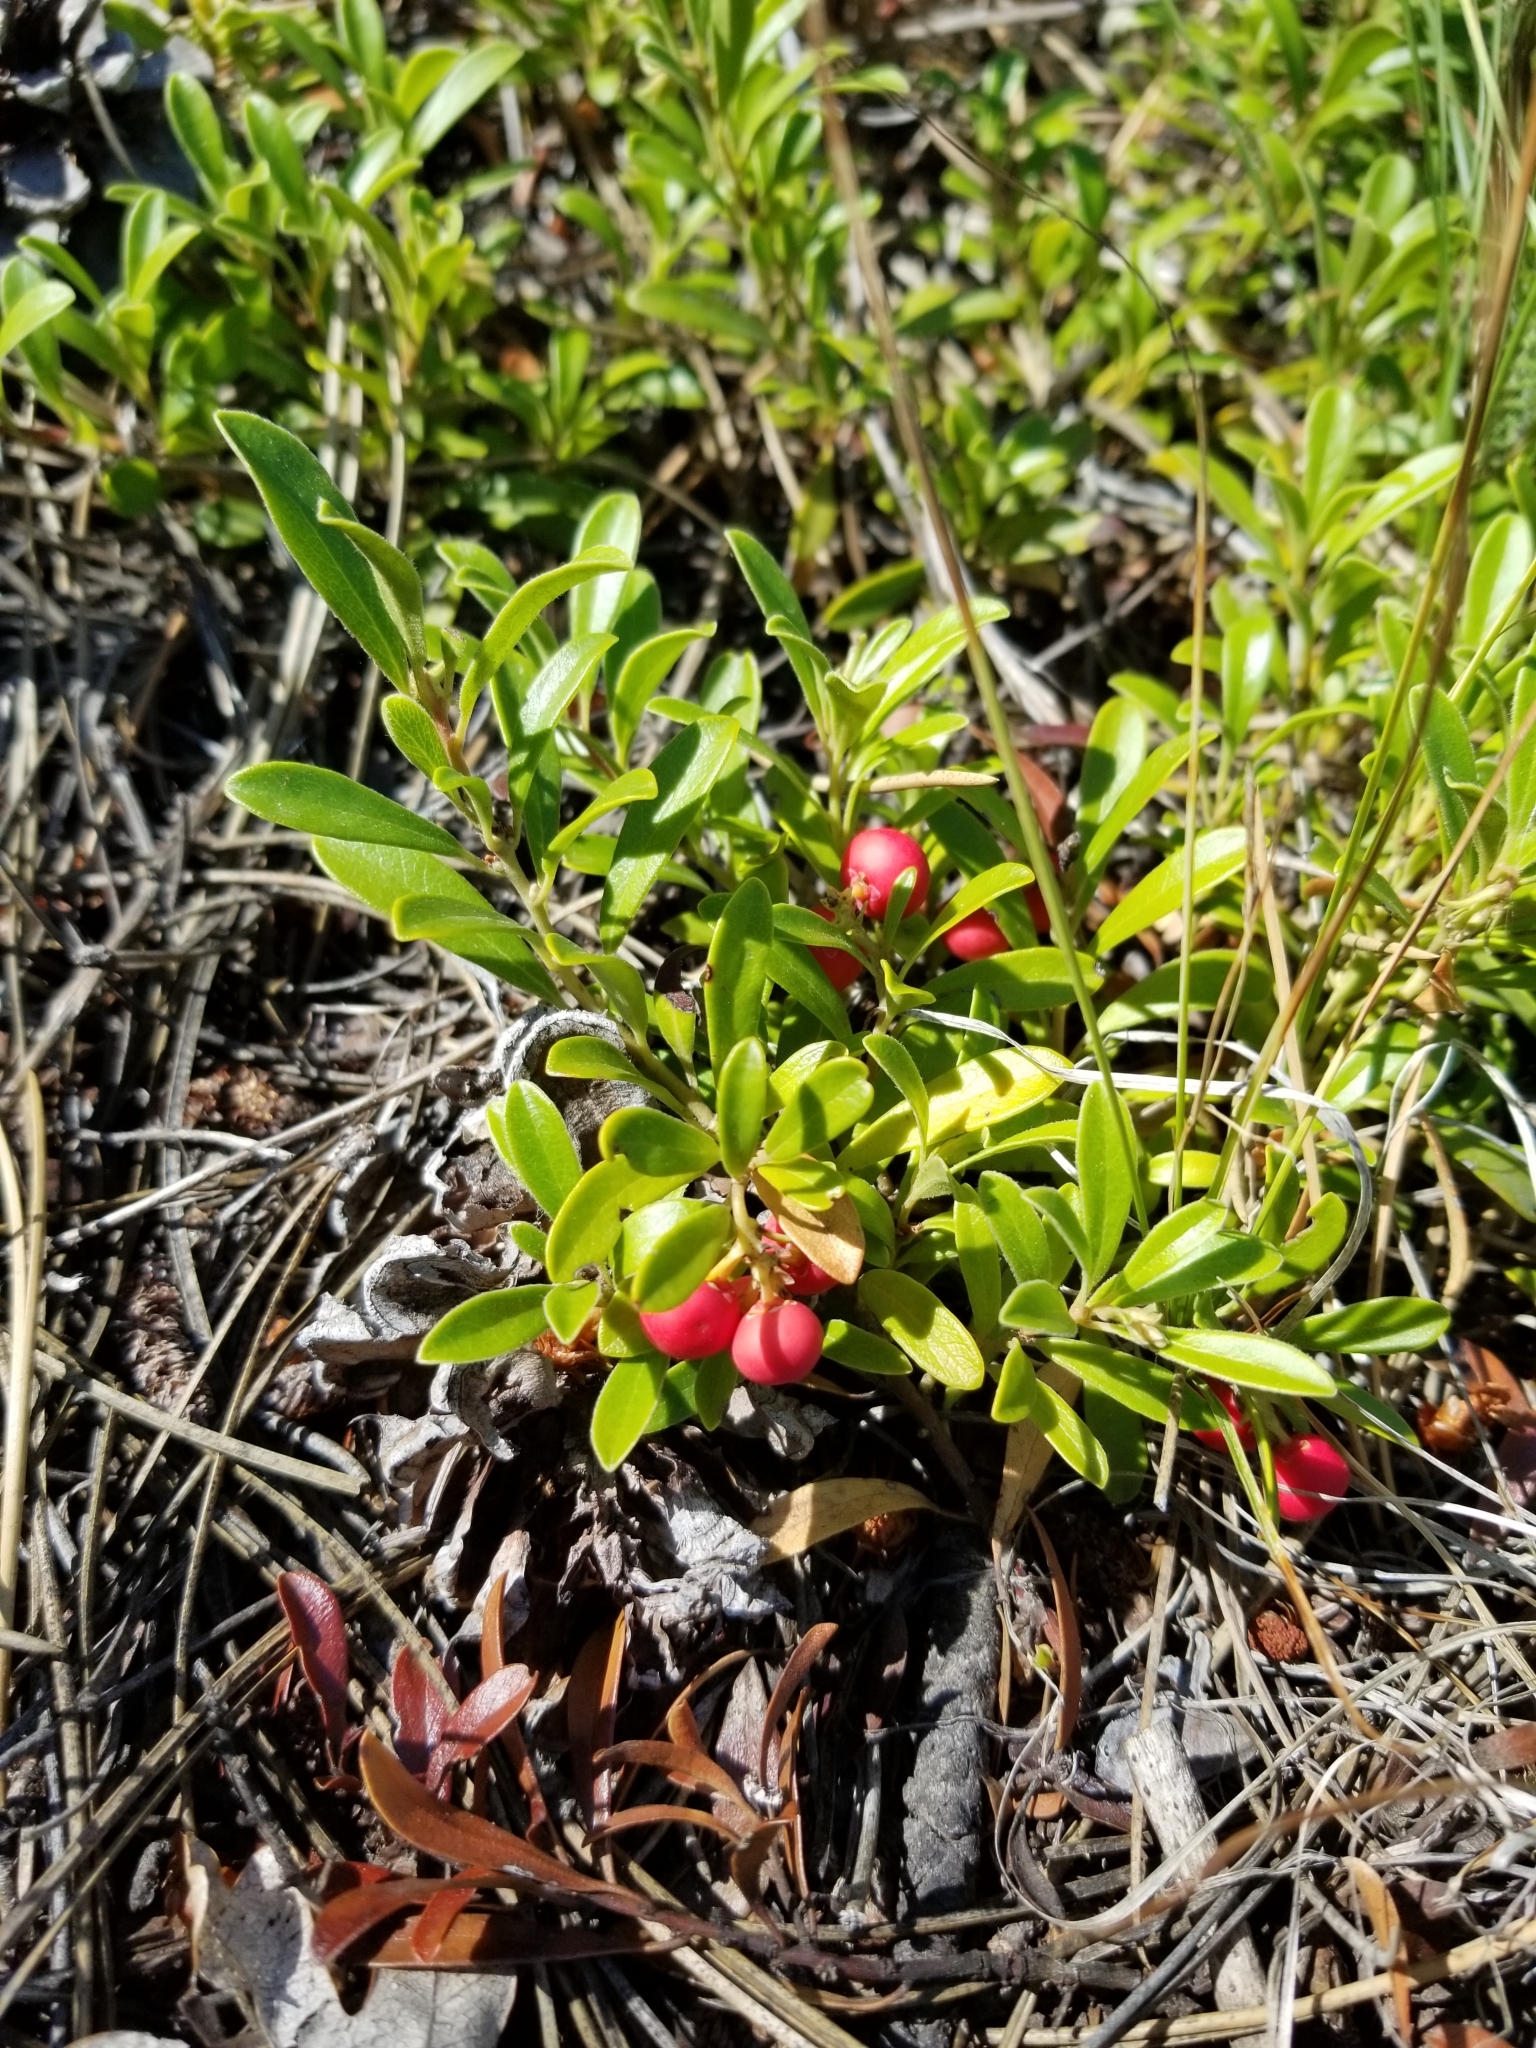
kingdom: Plantae
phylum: Tracheophyta
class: Magnoliopsida
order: Ericales
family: Ericaceae
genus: Arctostaphylos
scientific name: Arctostaphylos uva-ursi
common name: Bearberry
